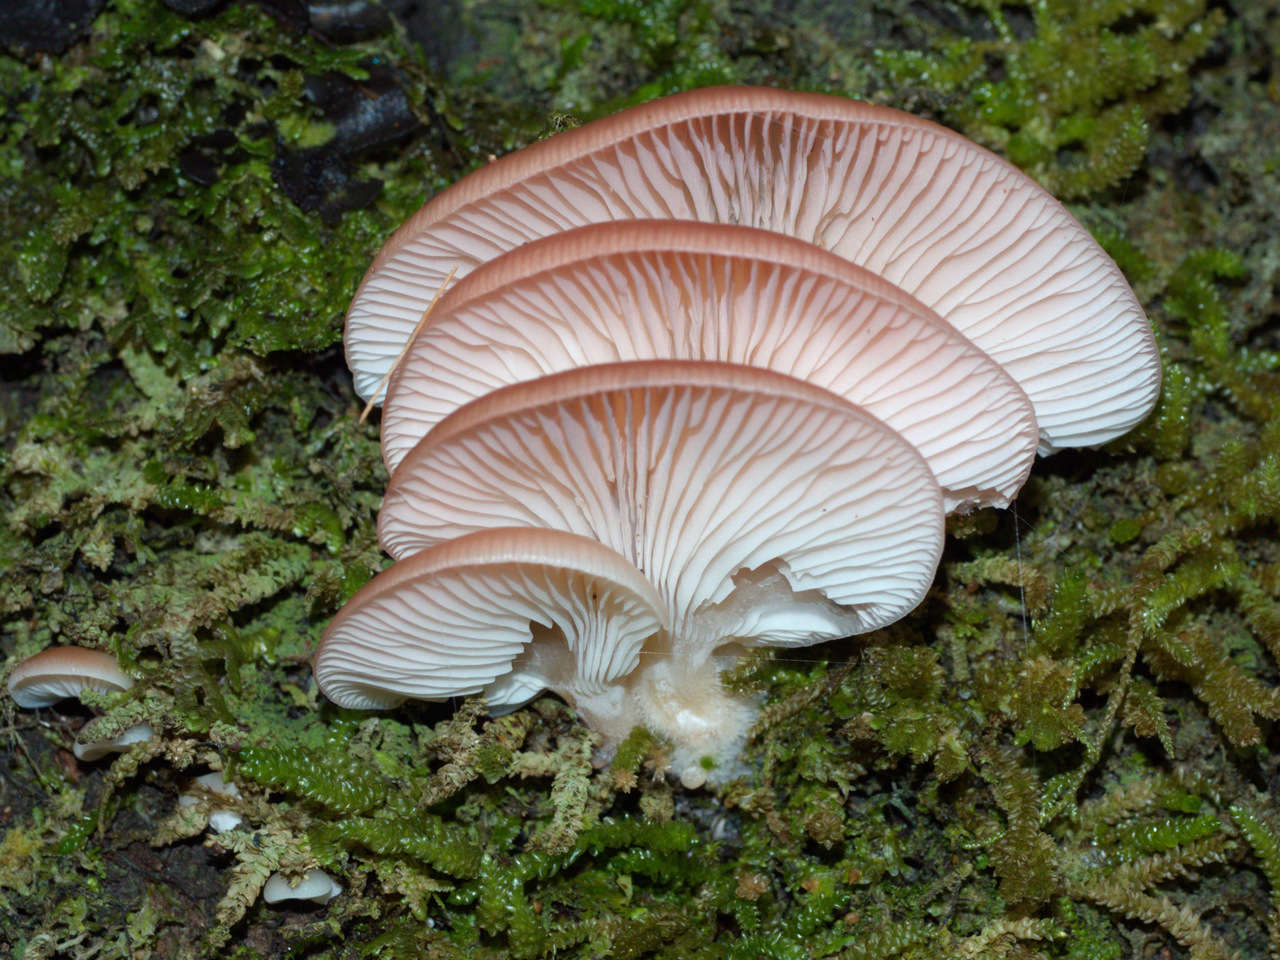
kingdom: Fungi
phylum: Basidiomycota
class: Agaricomycetes
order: Agaricales
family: Mycenaceae
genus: Panellus
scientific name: Panellus longinquus
